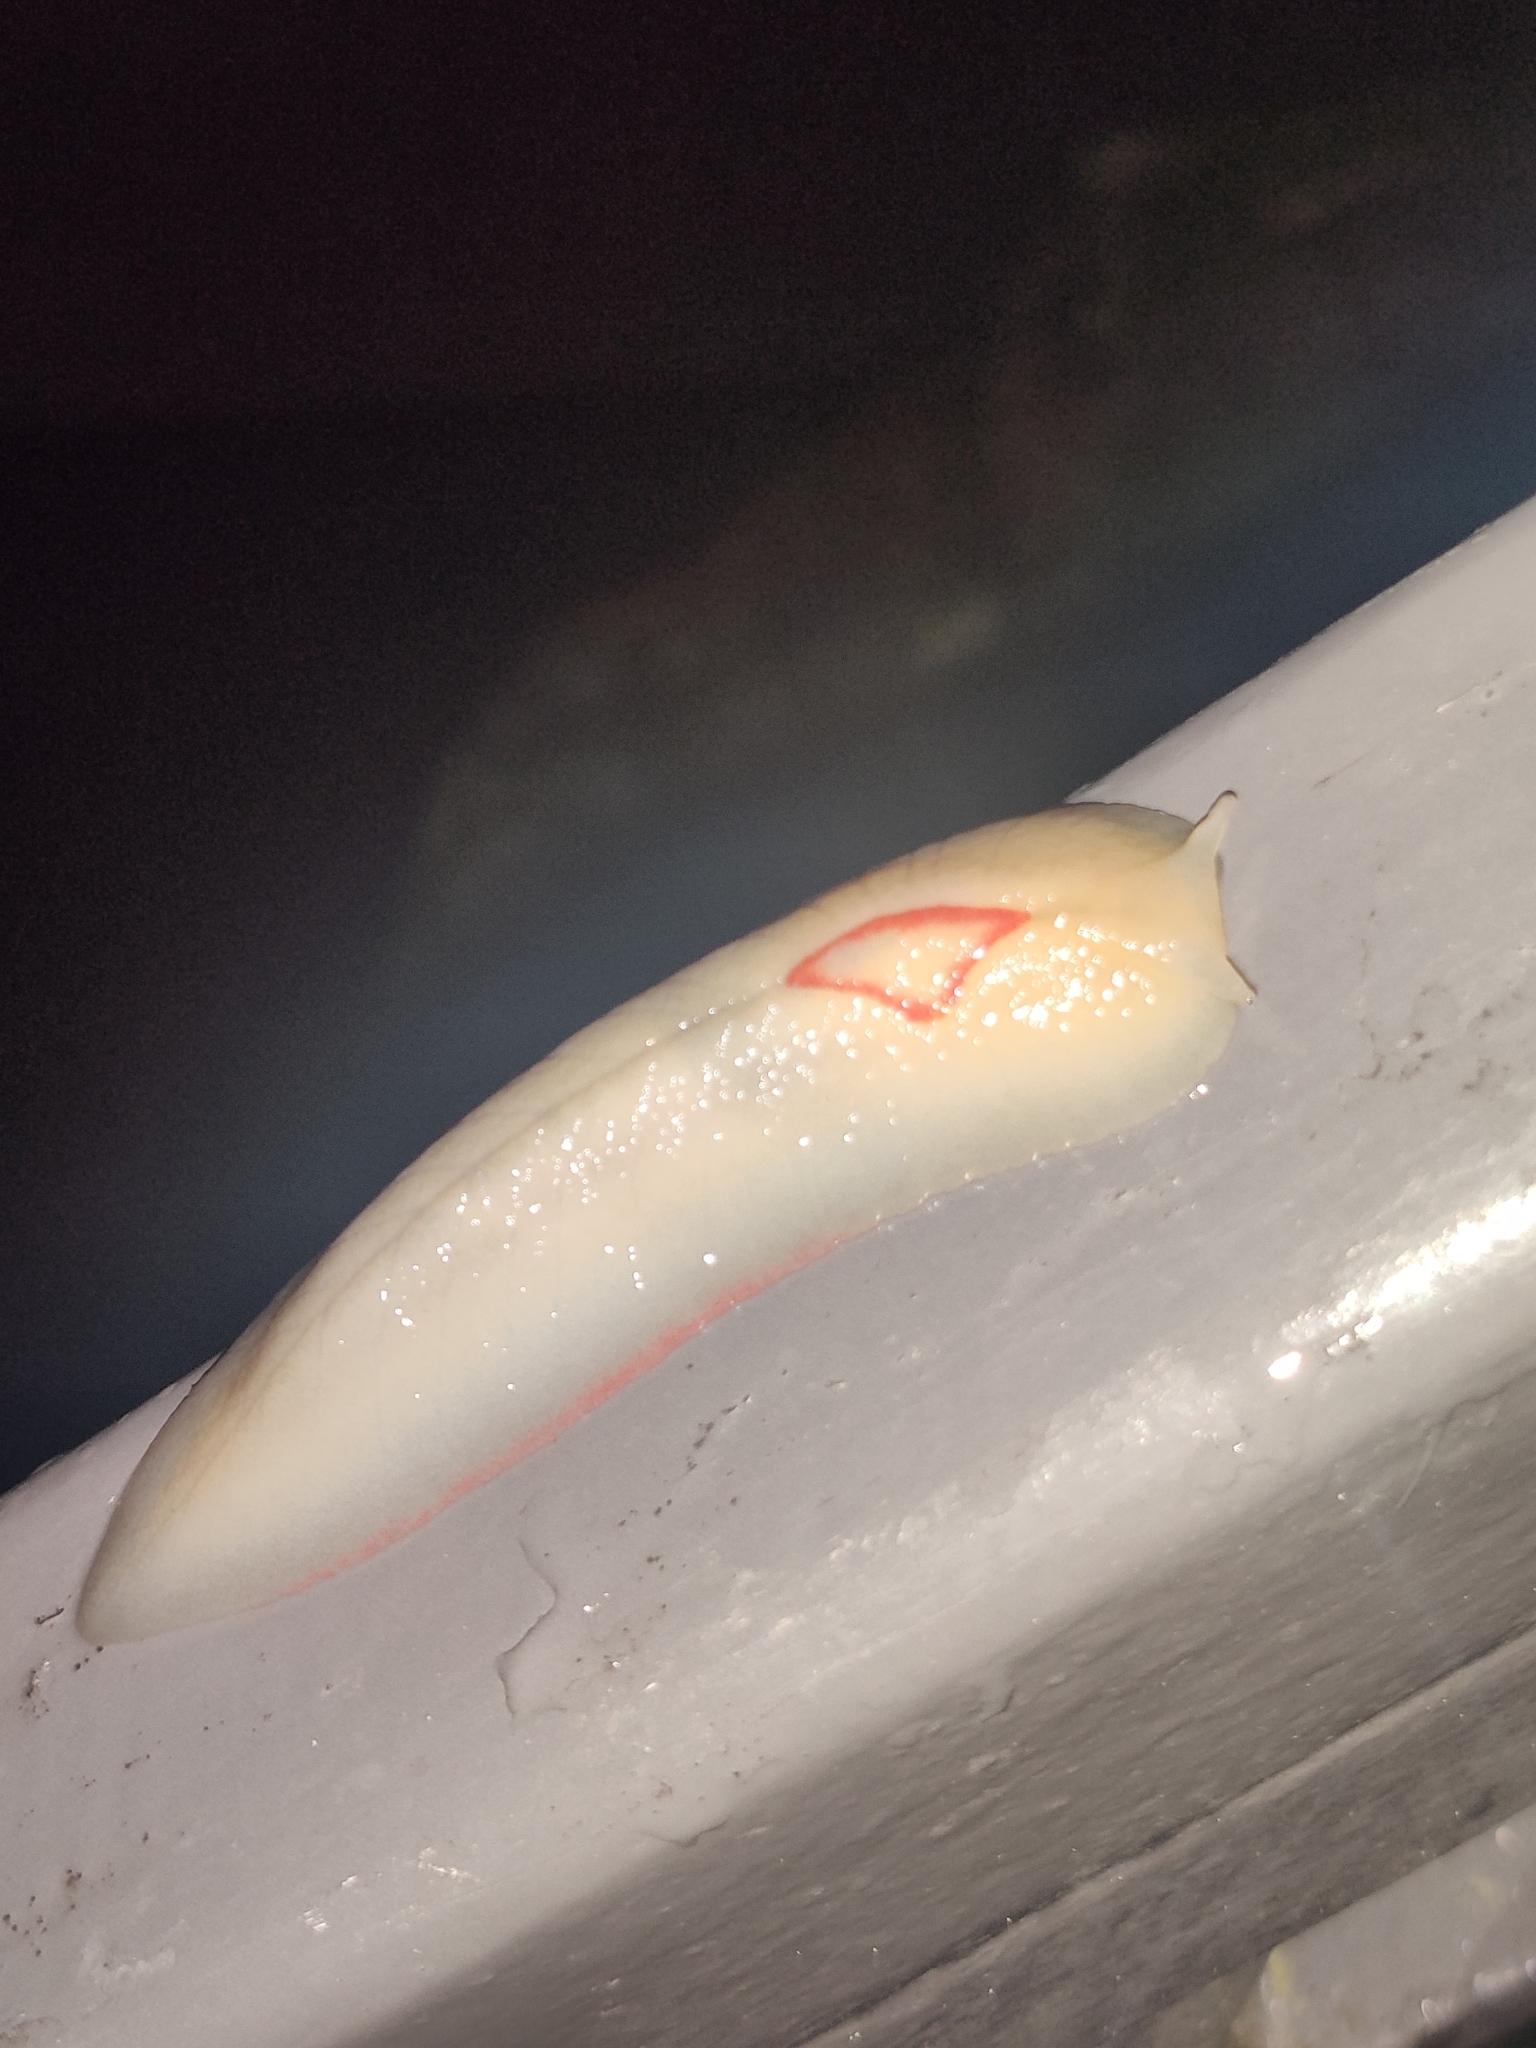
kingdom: Animalia
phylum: Mollusca
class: Gastropoda
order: Stylommatophora
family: Athoracophoridae
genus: Triboniophorus
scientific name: Triboniophorus graeffei
